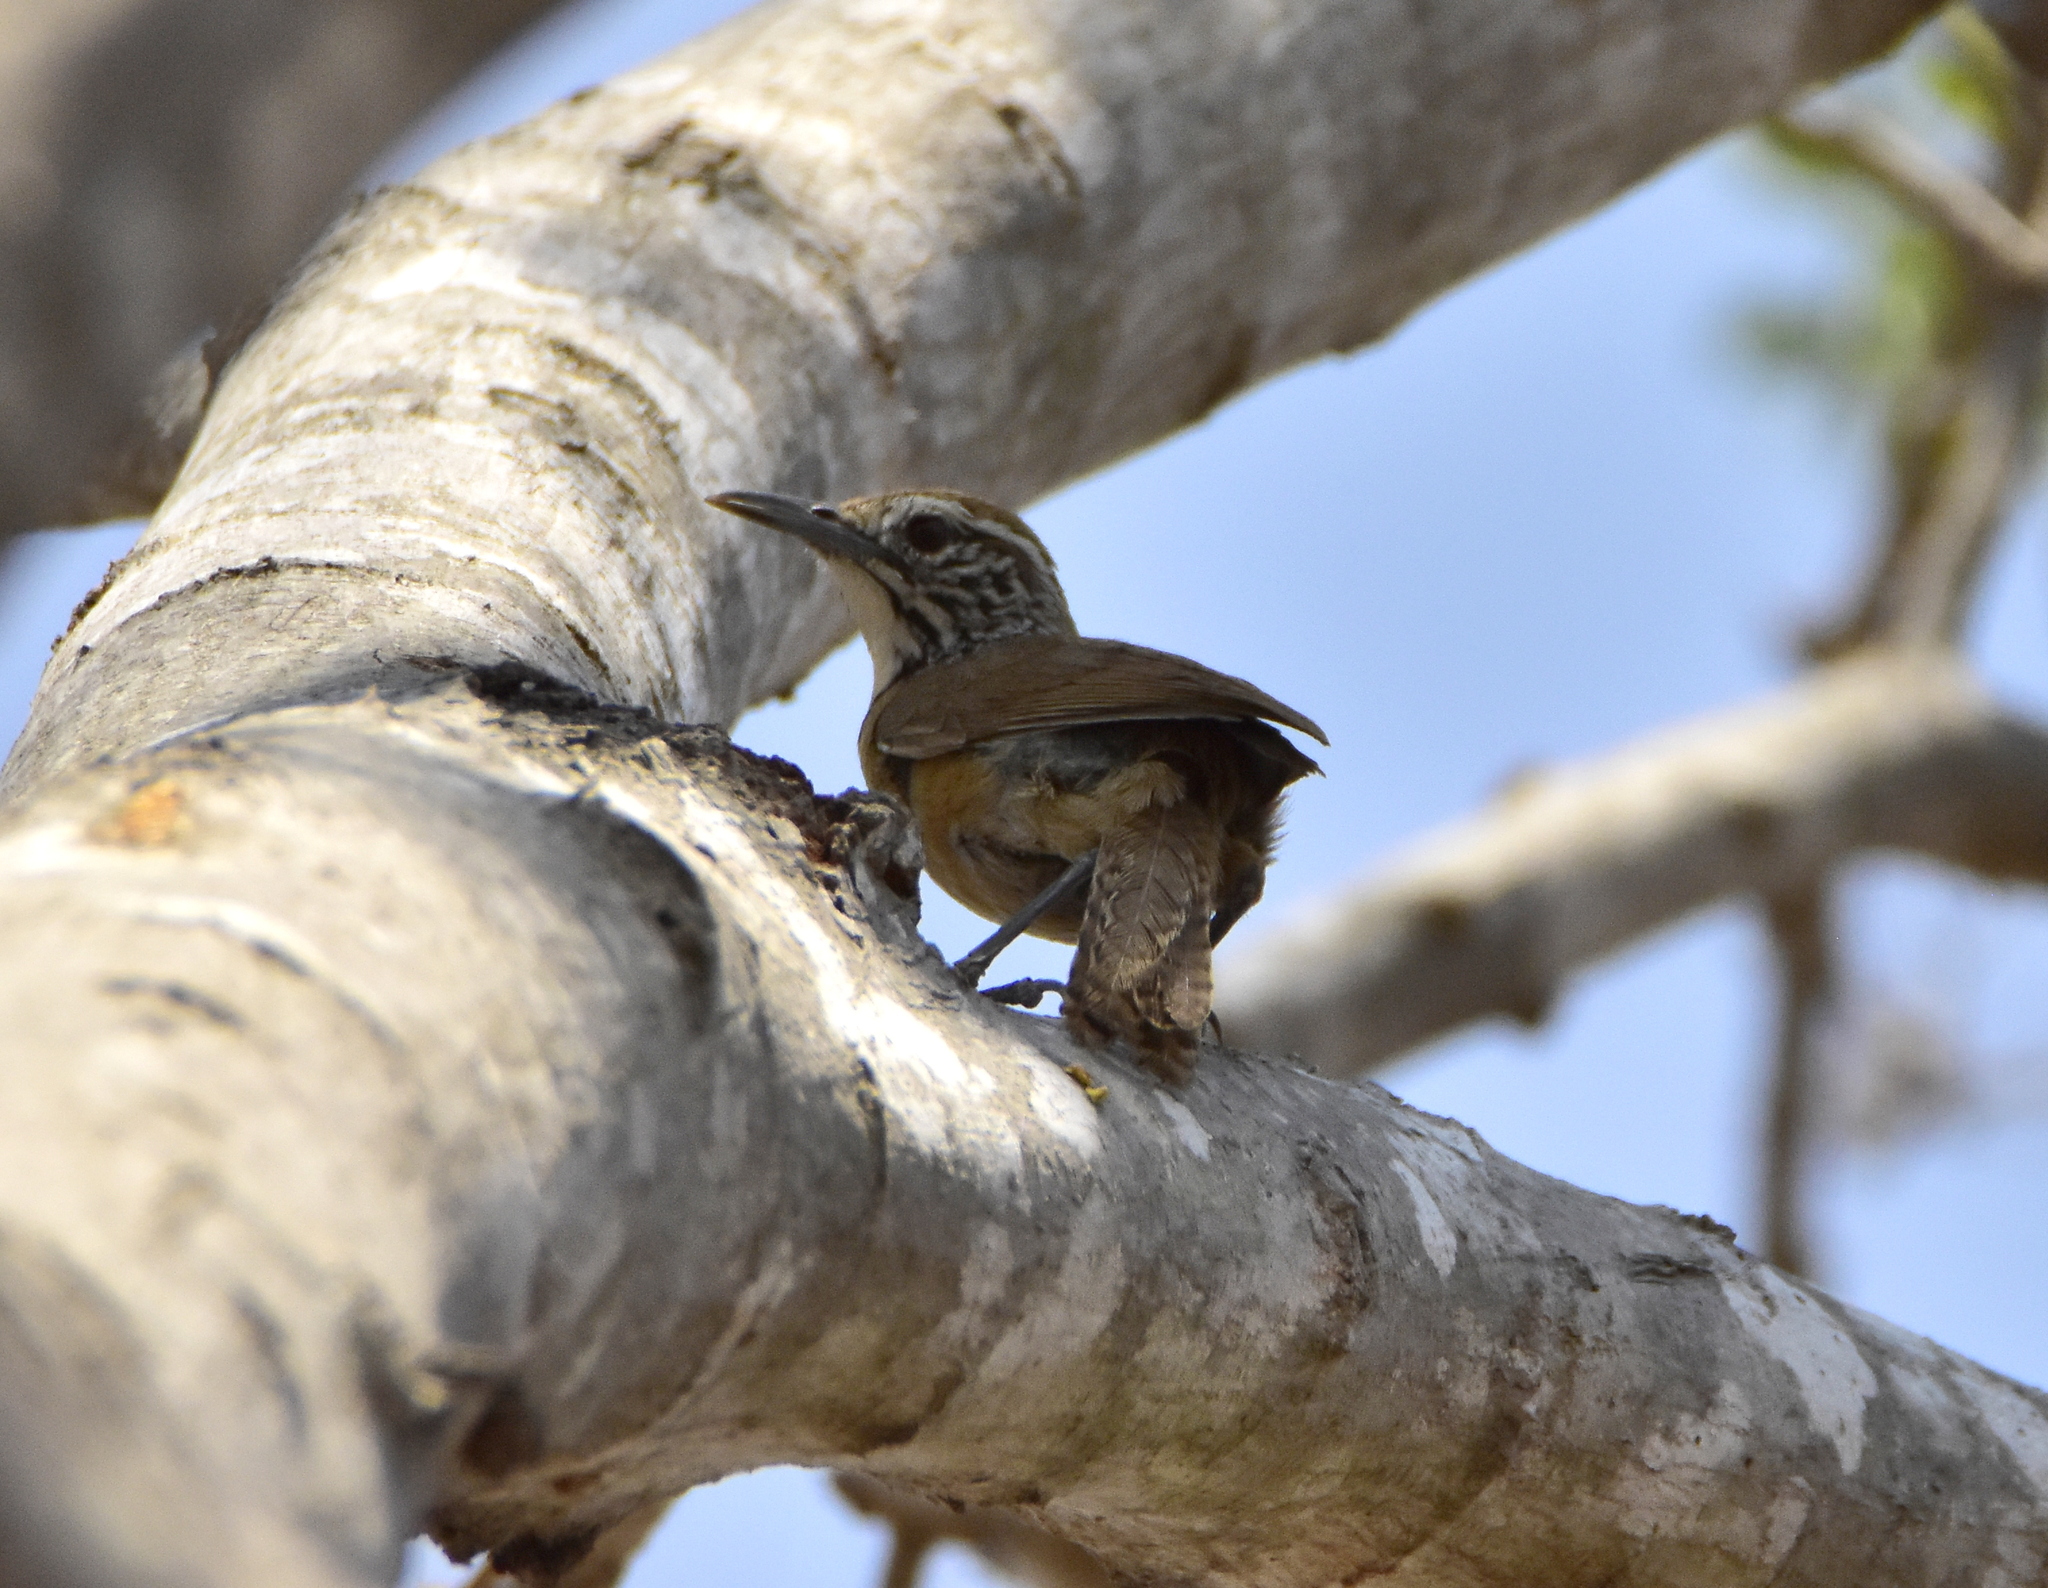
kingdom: Animalia
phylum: Chordata
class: Aves
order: Passeriformes
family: Troglodytidae
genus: Pheugopedius
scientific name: Pheugopedius felix
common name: Happy wren
